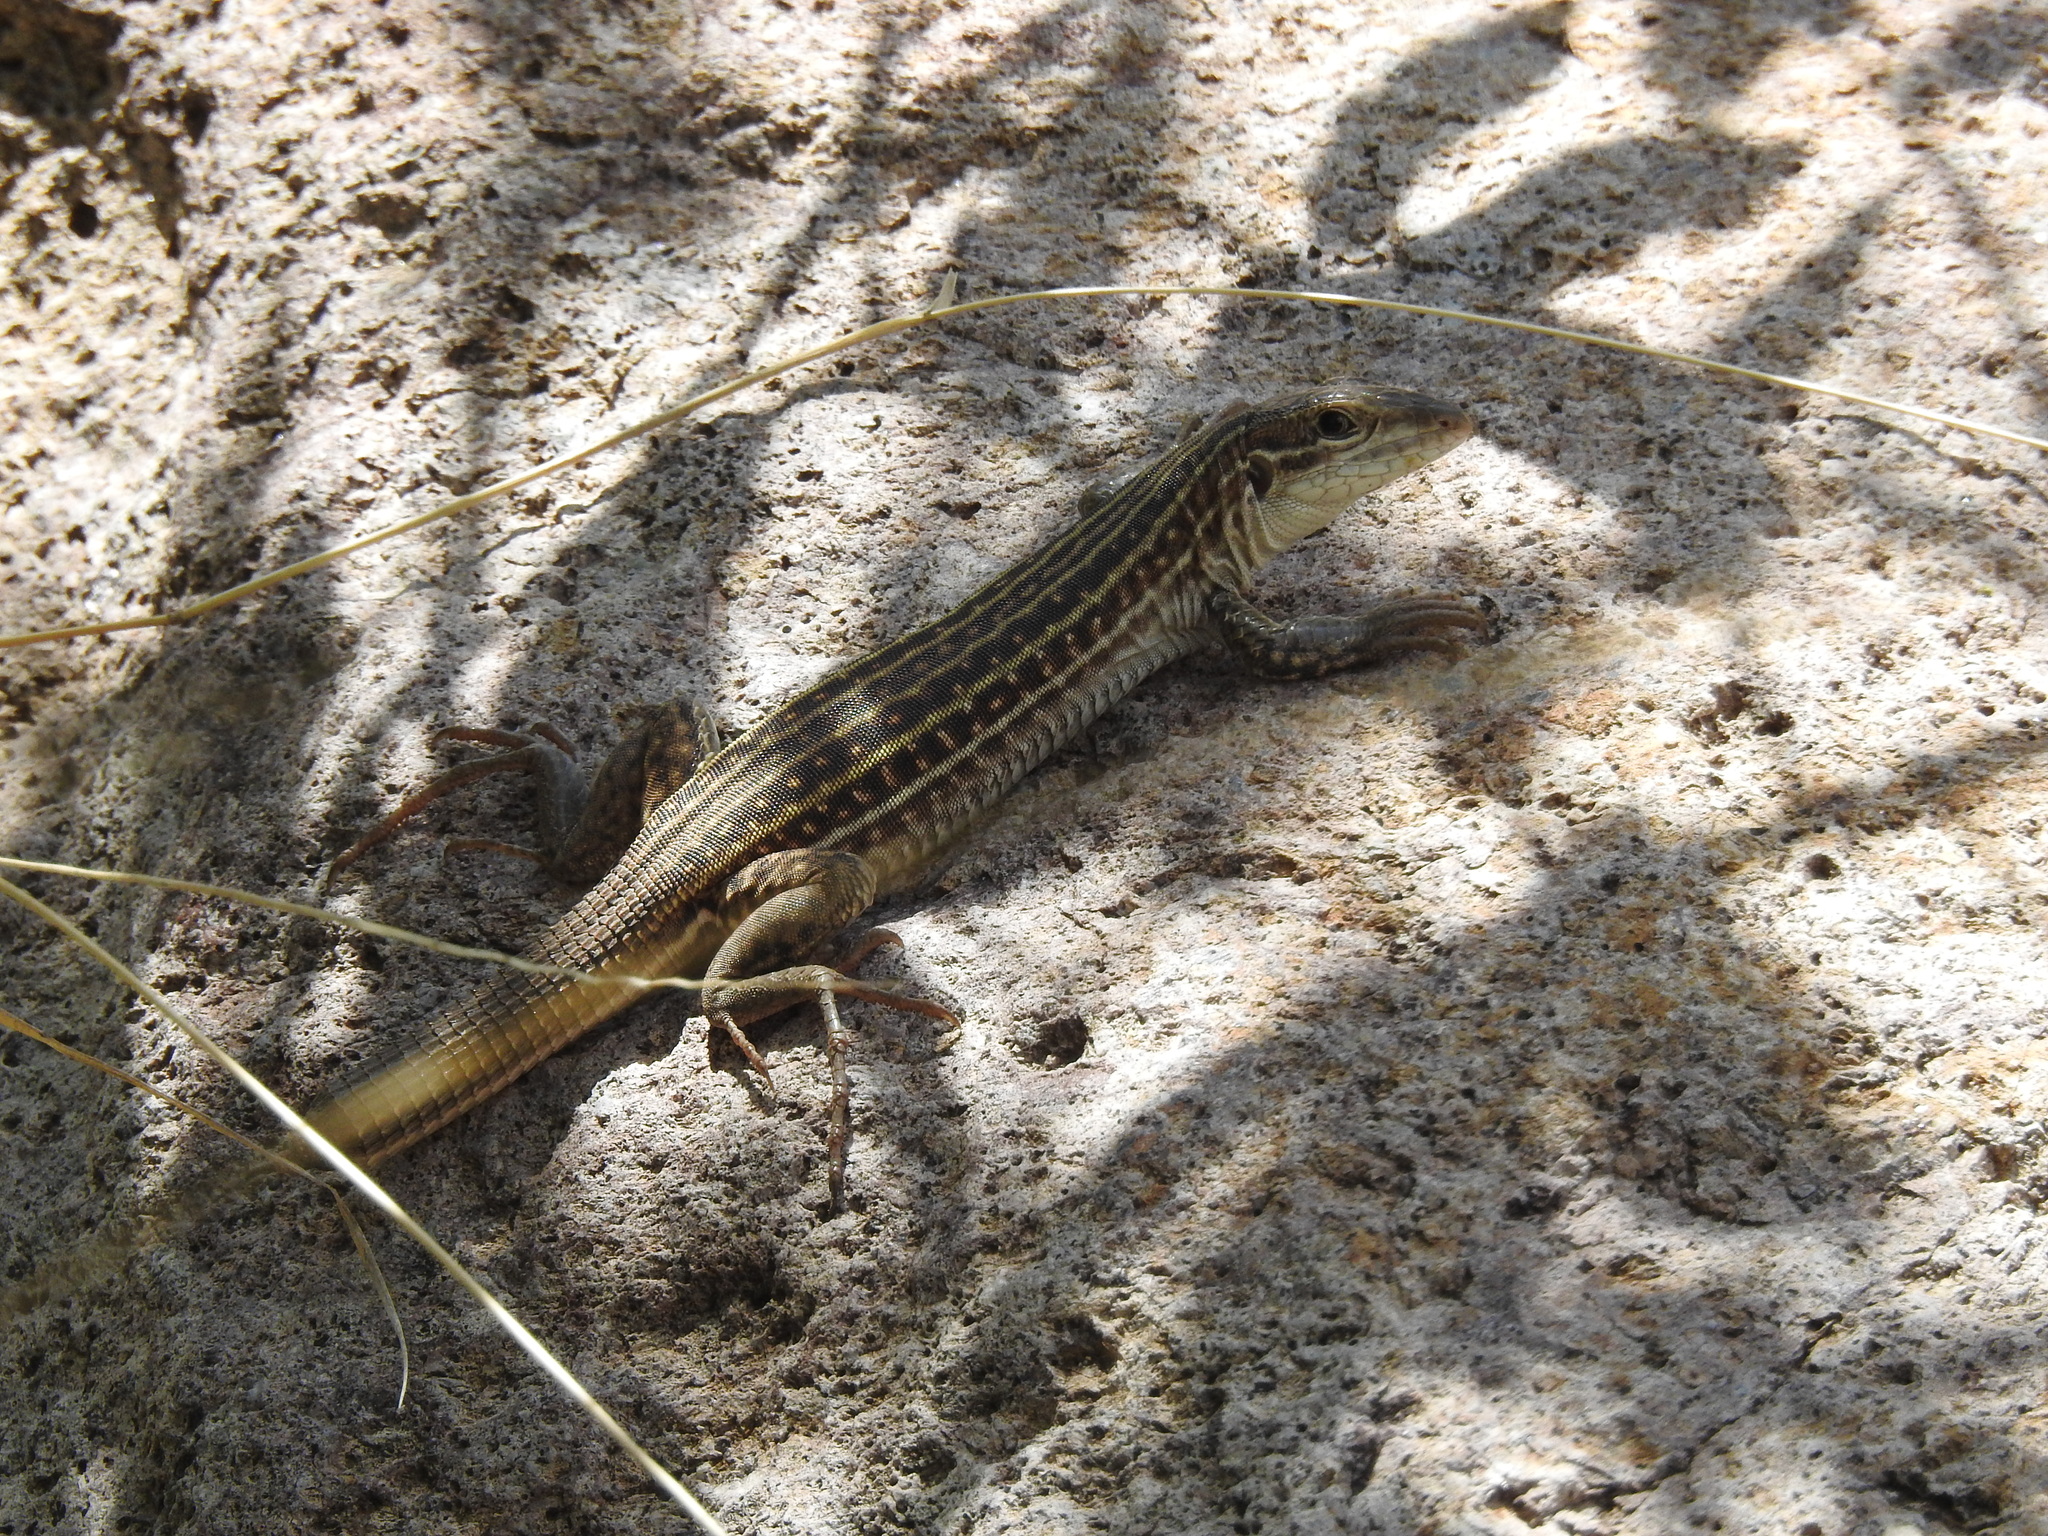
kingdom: Animalia
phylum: Chordata
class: Squamata
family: Teiidae
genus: Aspidoscelis
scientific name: Aspidoscelis sonorae
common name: Sonoran spotted whiptail
